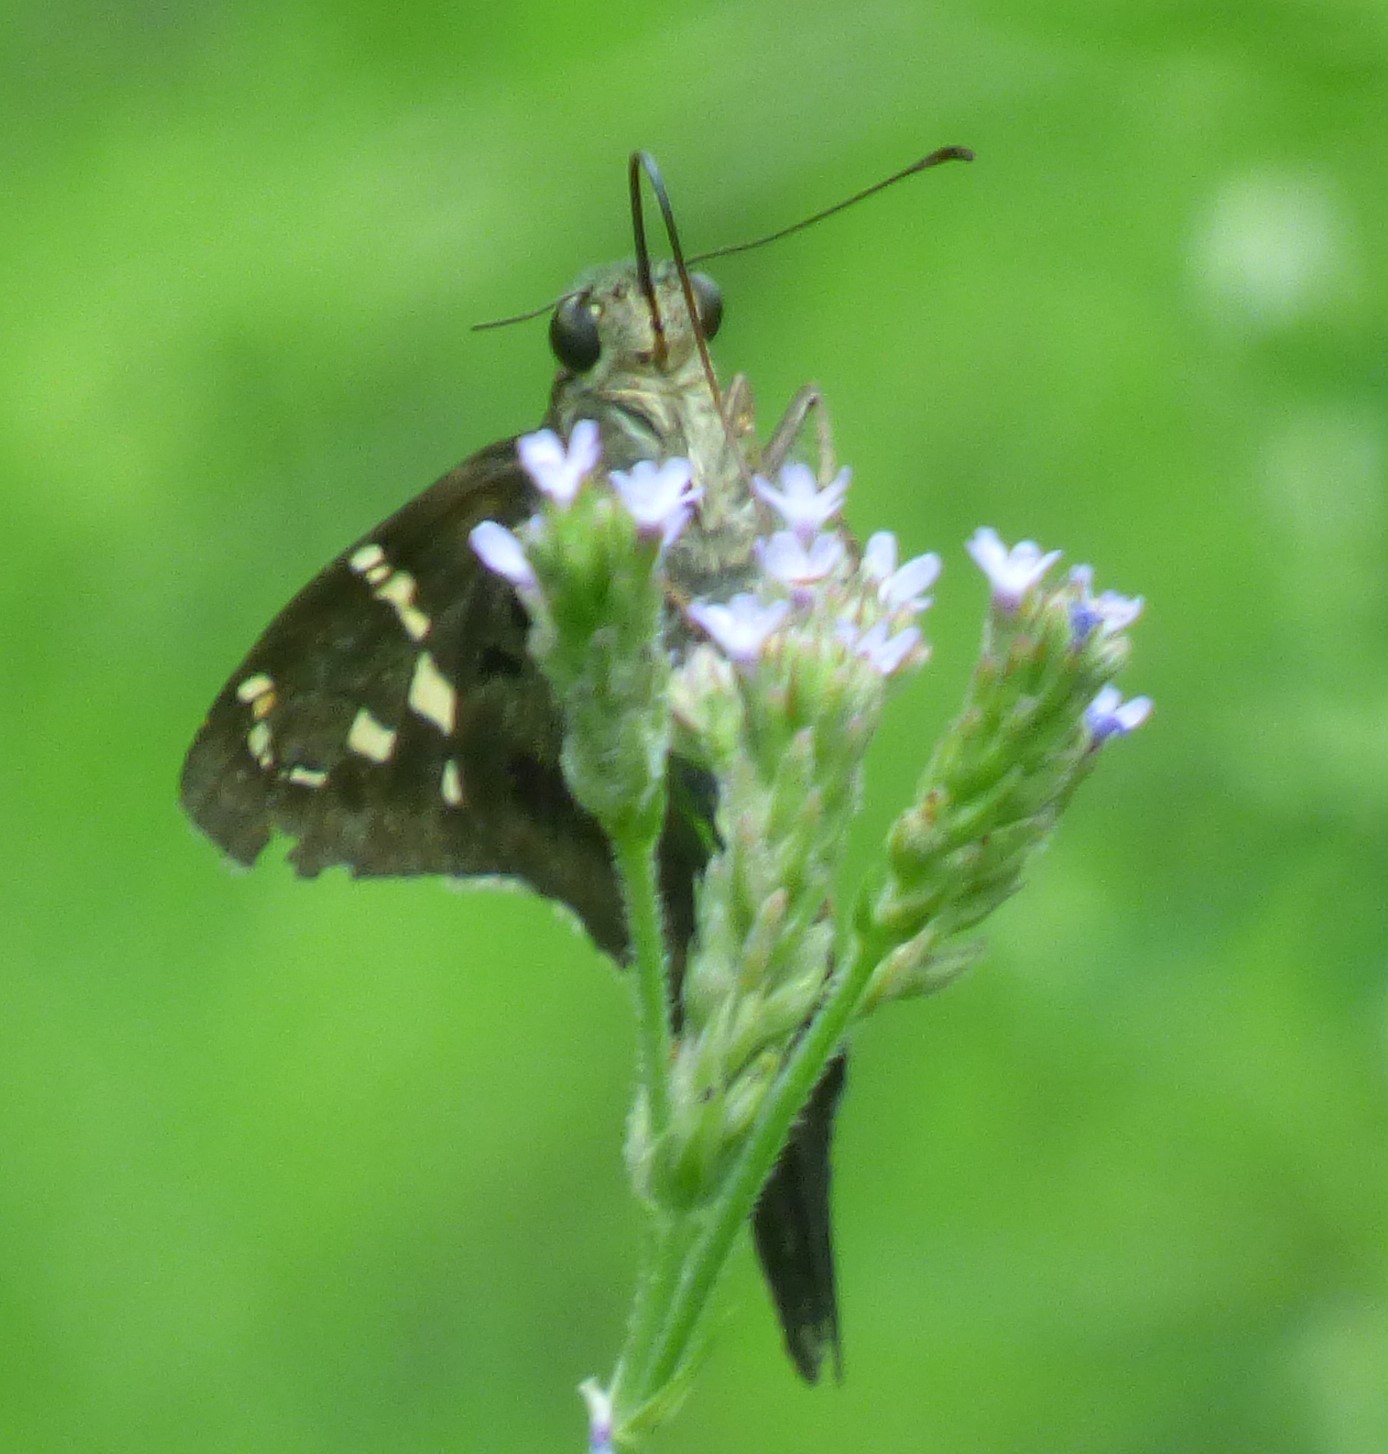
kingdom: Animalia
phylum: Arthropoda
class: Insecta
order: Lepidoptera
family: Hesperiidae
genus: Urbanus
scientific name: Urbanus proteus
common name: Long-tailed skipper
